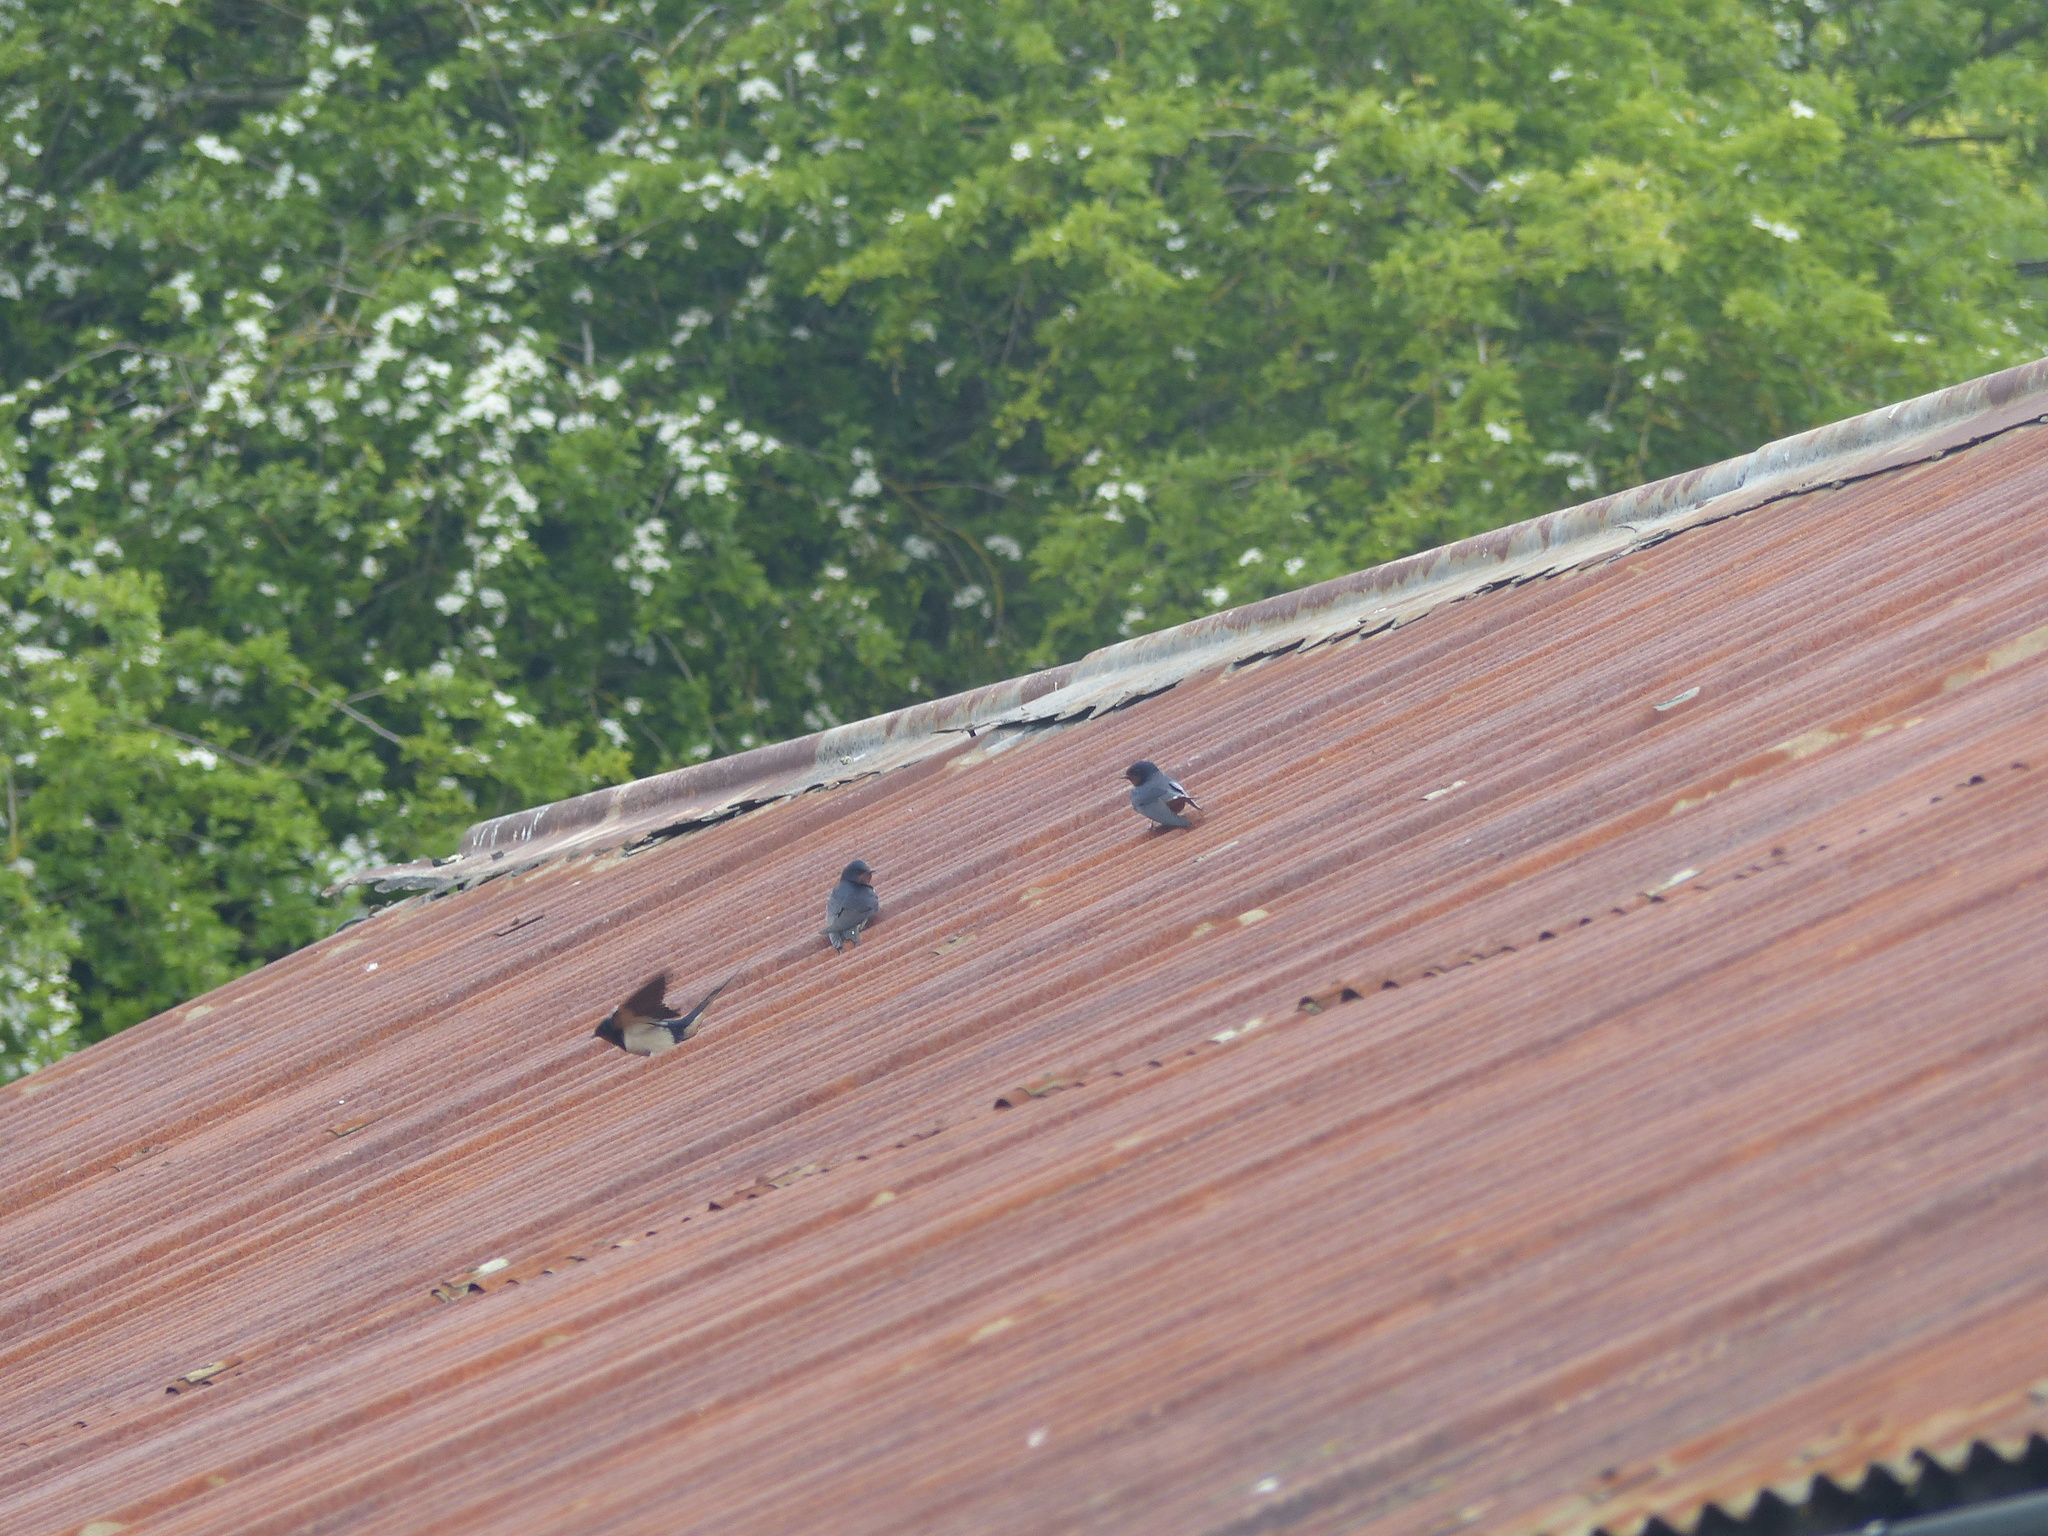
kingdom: Animalia
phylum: Chordata
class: Aves
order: Passeriformes
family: Hirundinidae
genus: Hirundo
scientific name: Hirundo rustica
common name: Barn swallow
